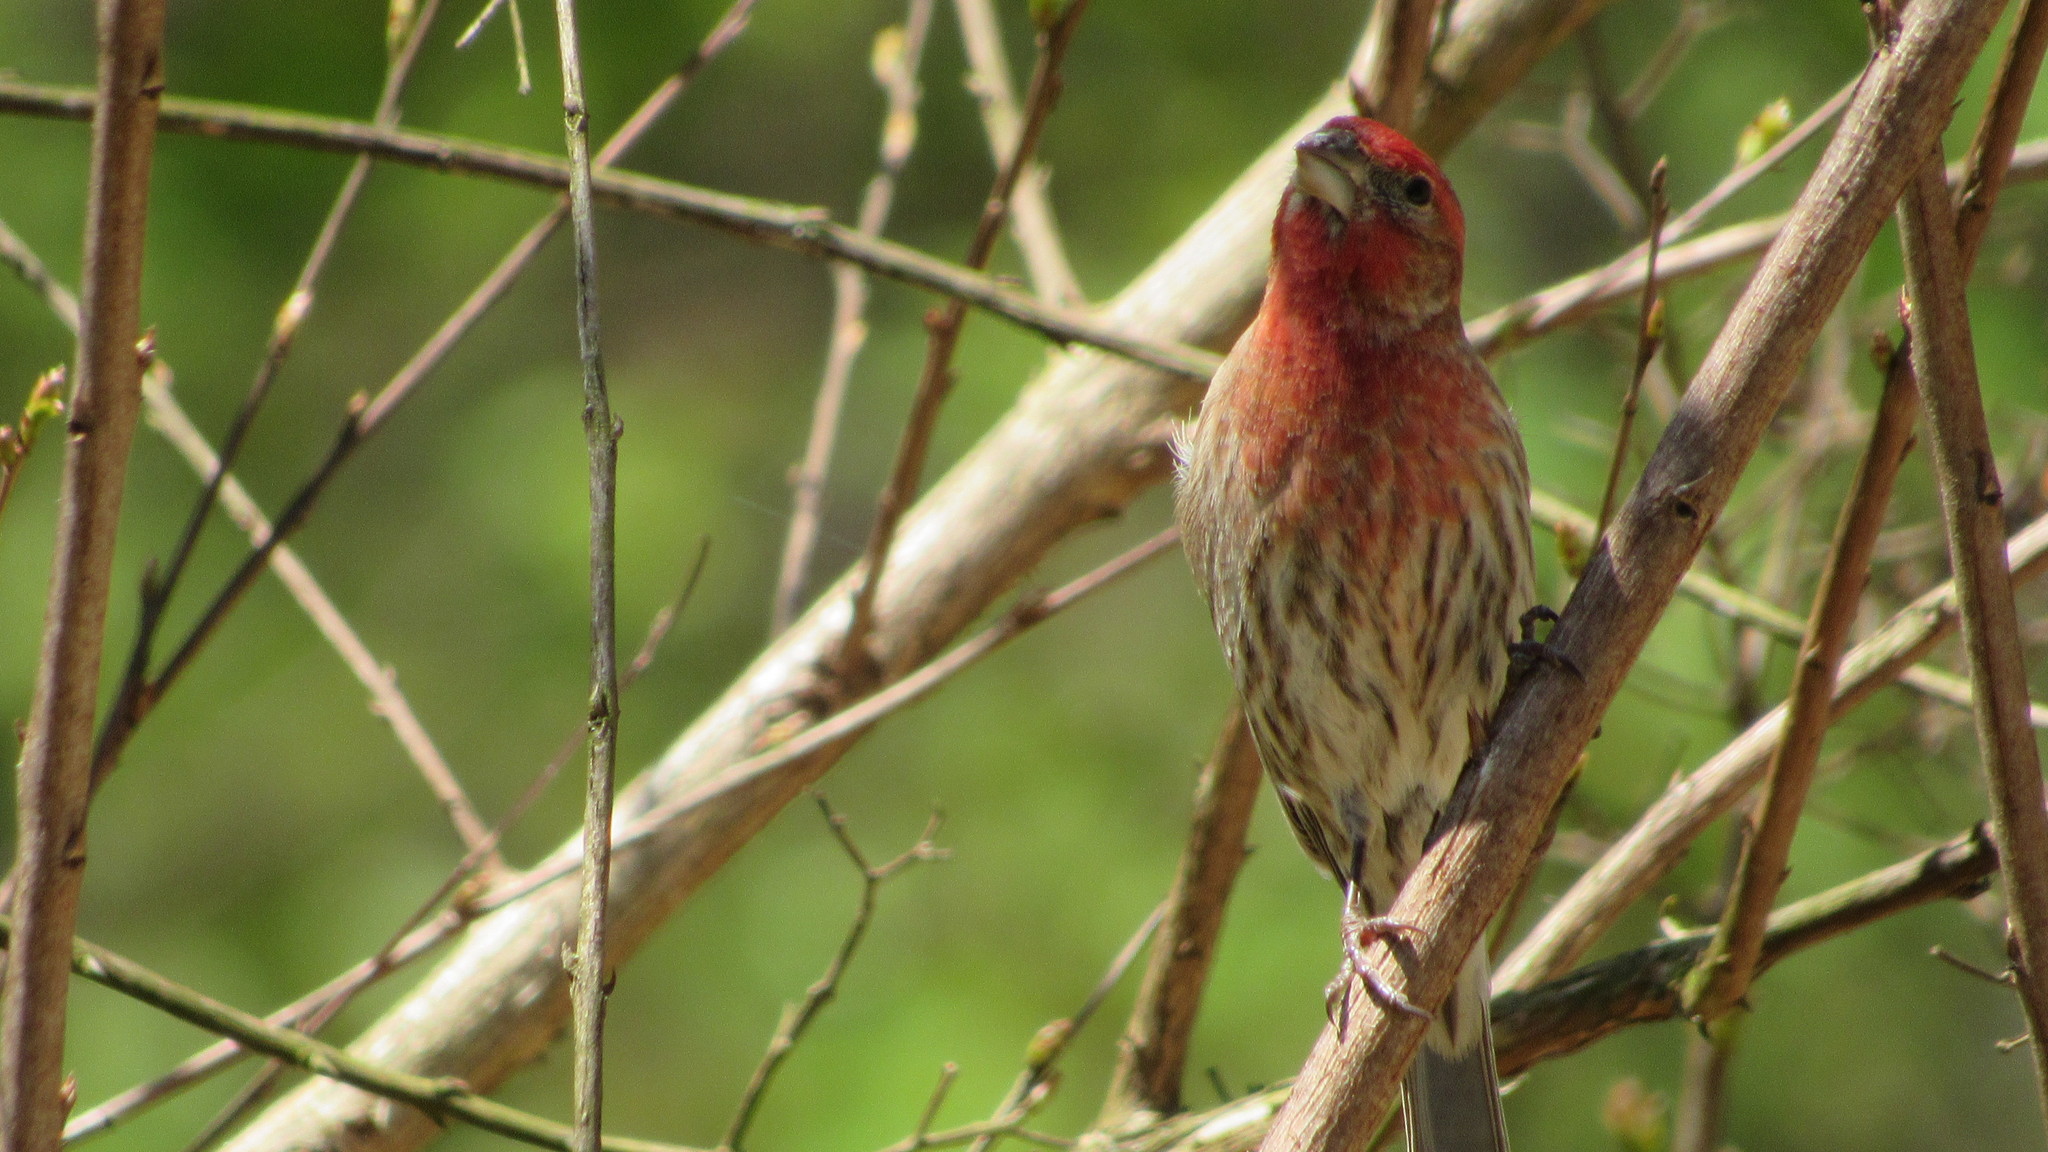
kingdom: Animalia
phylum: Chordata
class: Aves
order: Passeriformes
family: Fringillidae
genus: Haemorhous
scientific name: Haemorhous mexicanus
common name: House finch
